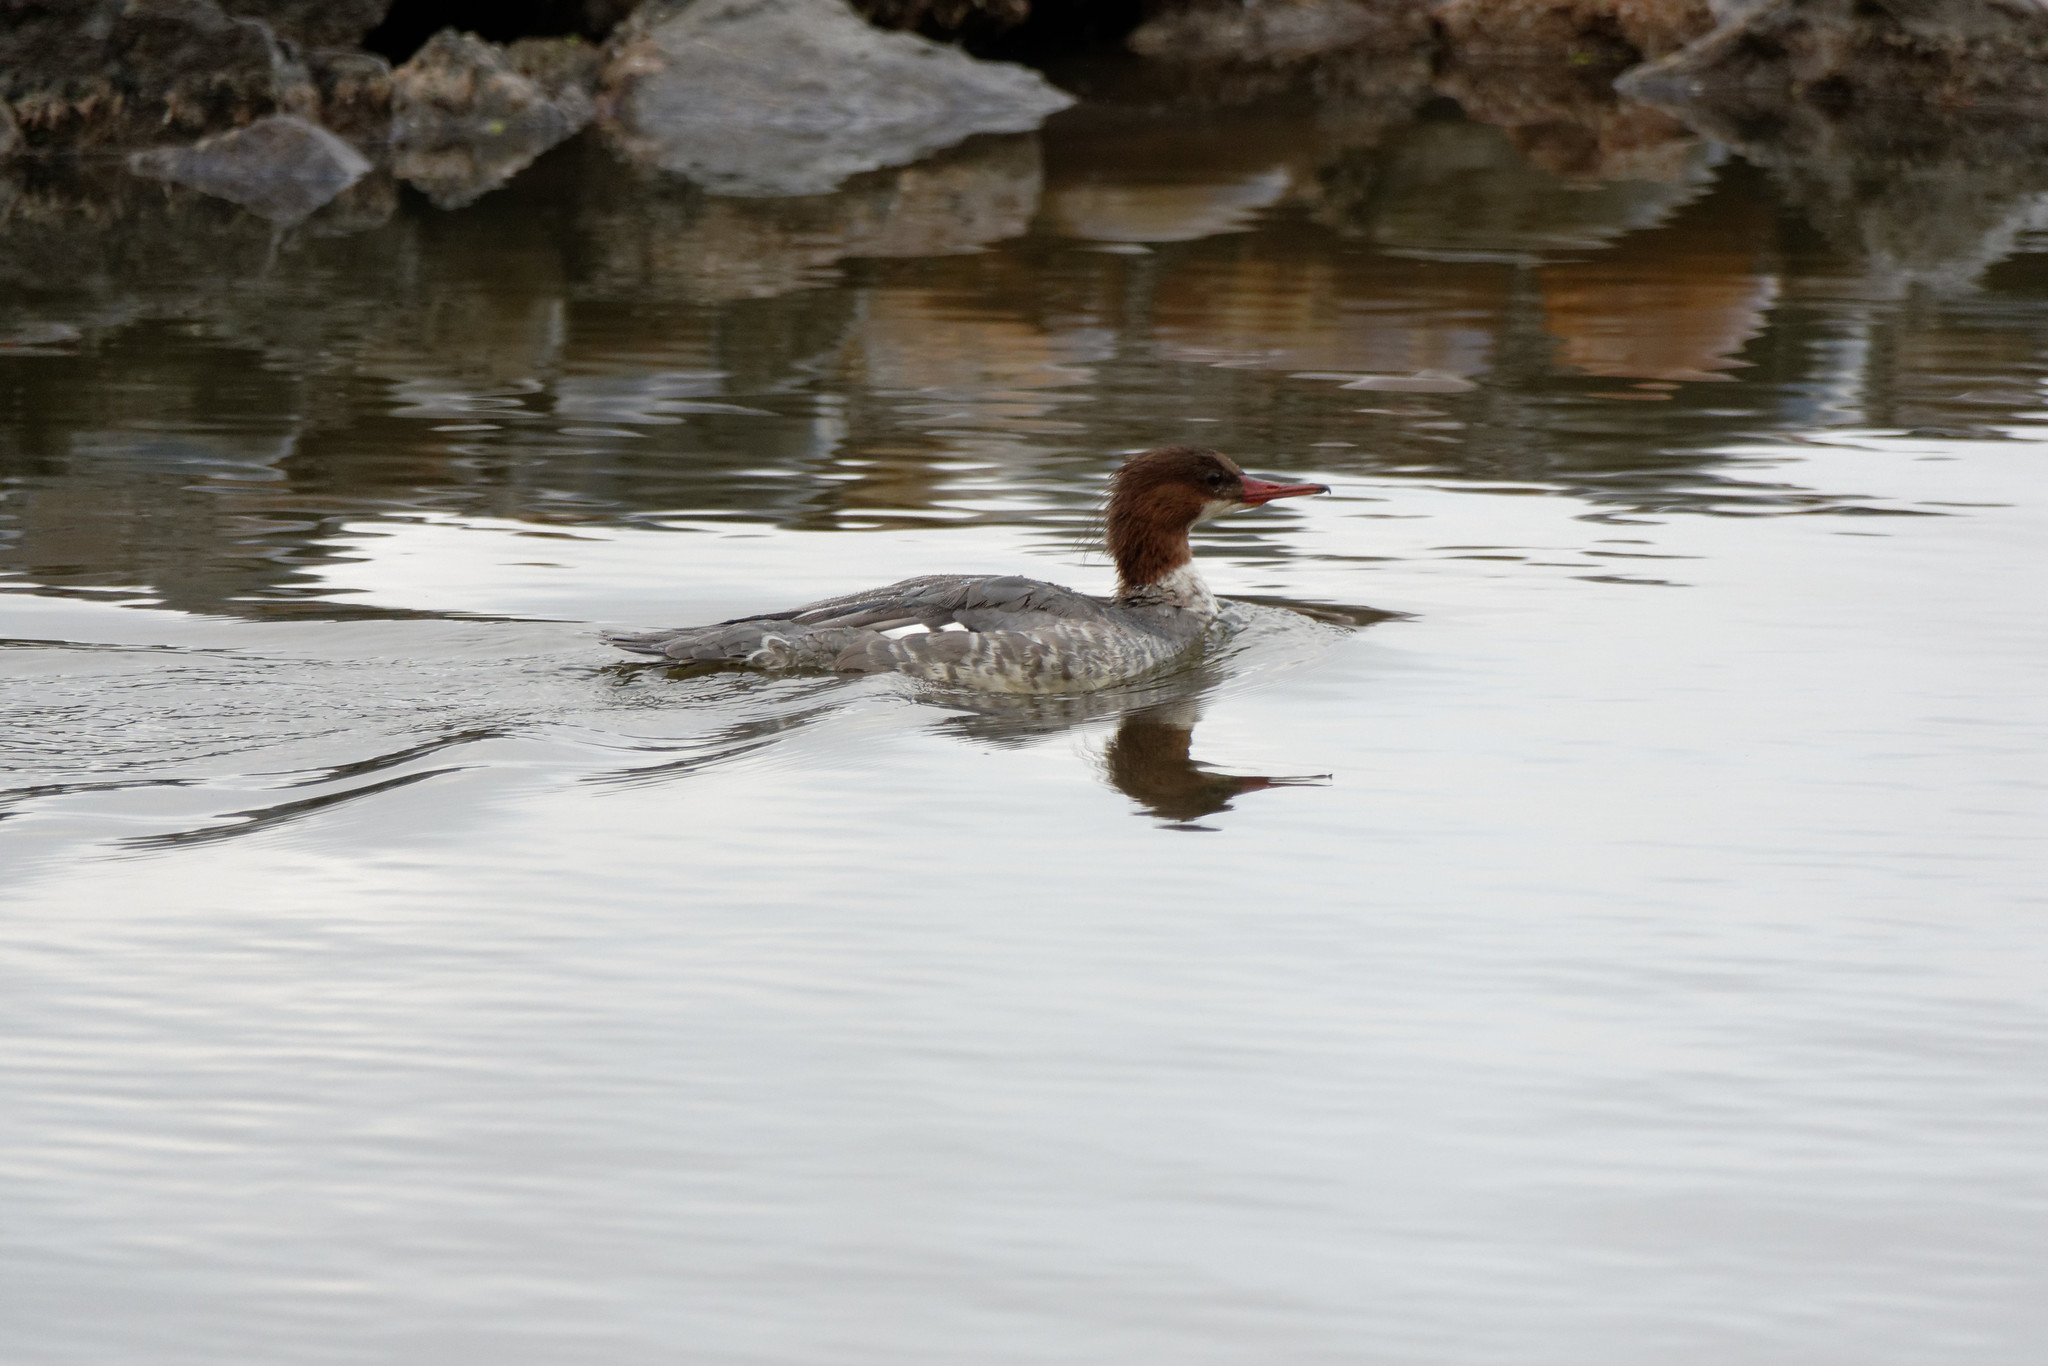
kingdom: Animalia
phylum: Chordata
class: Aves
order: Anseriformes
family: Anatidae
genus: Mergus
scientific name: Mergus merganser
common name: Common merganser
